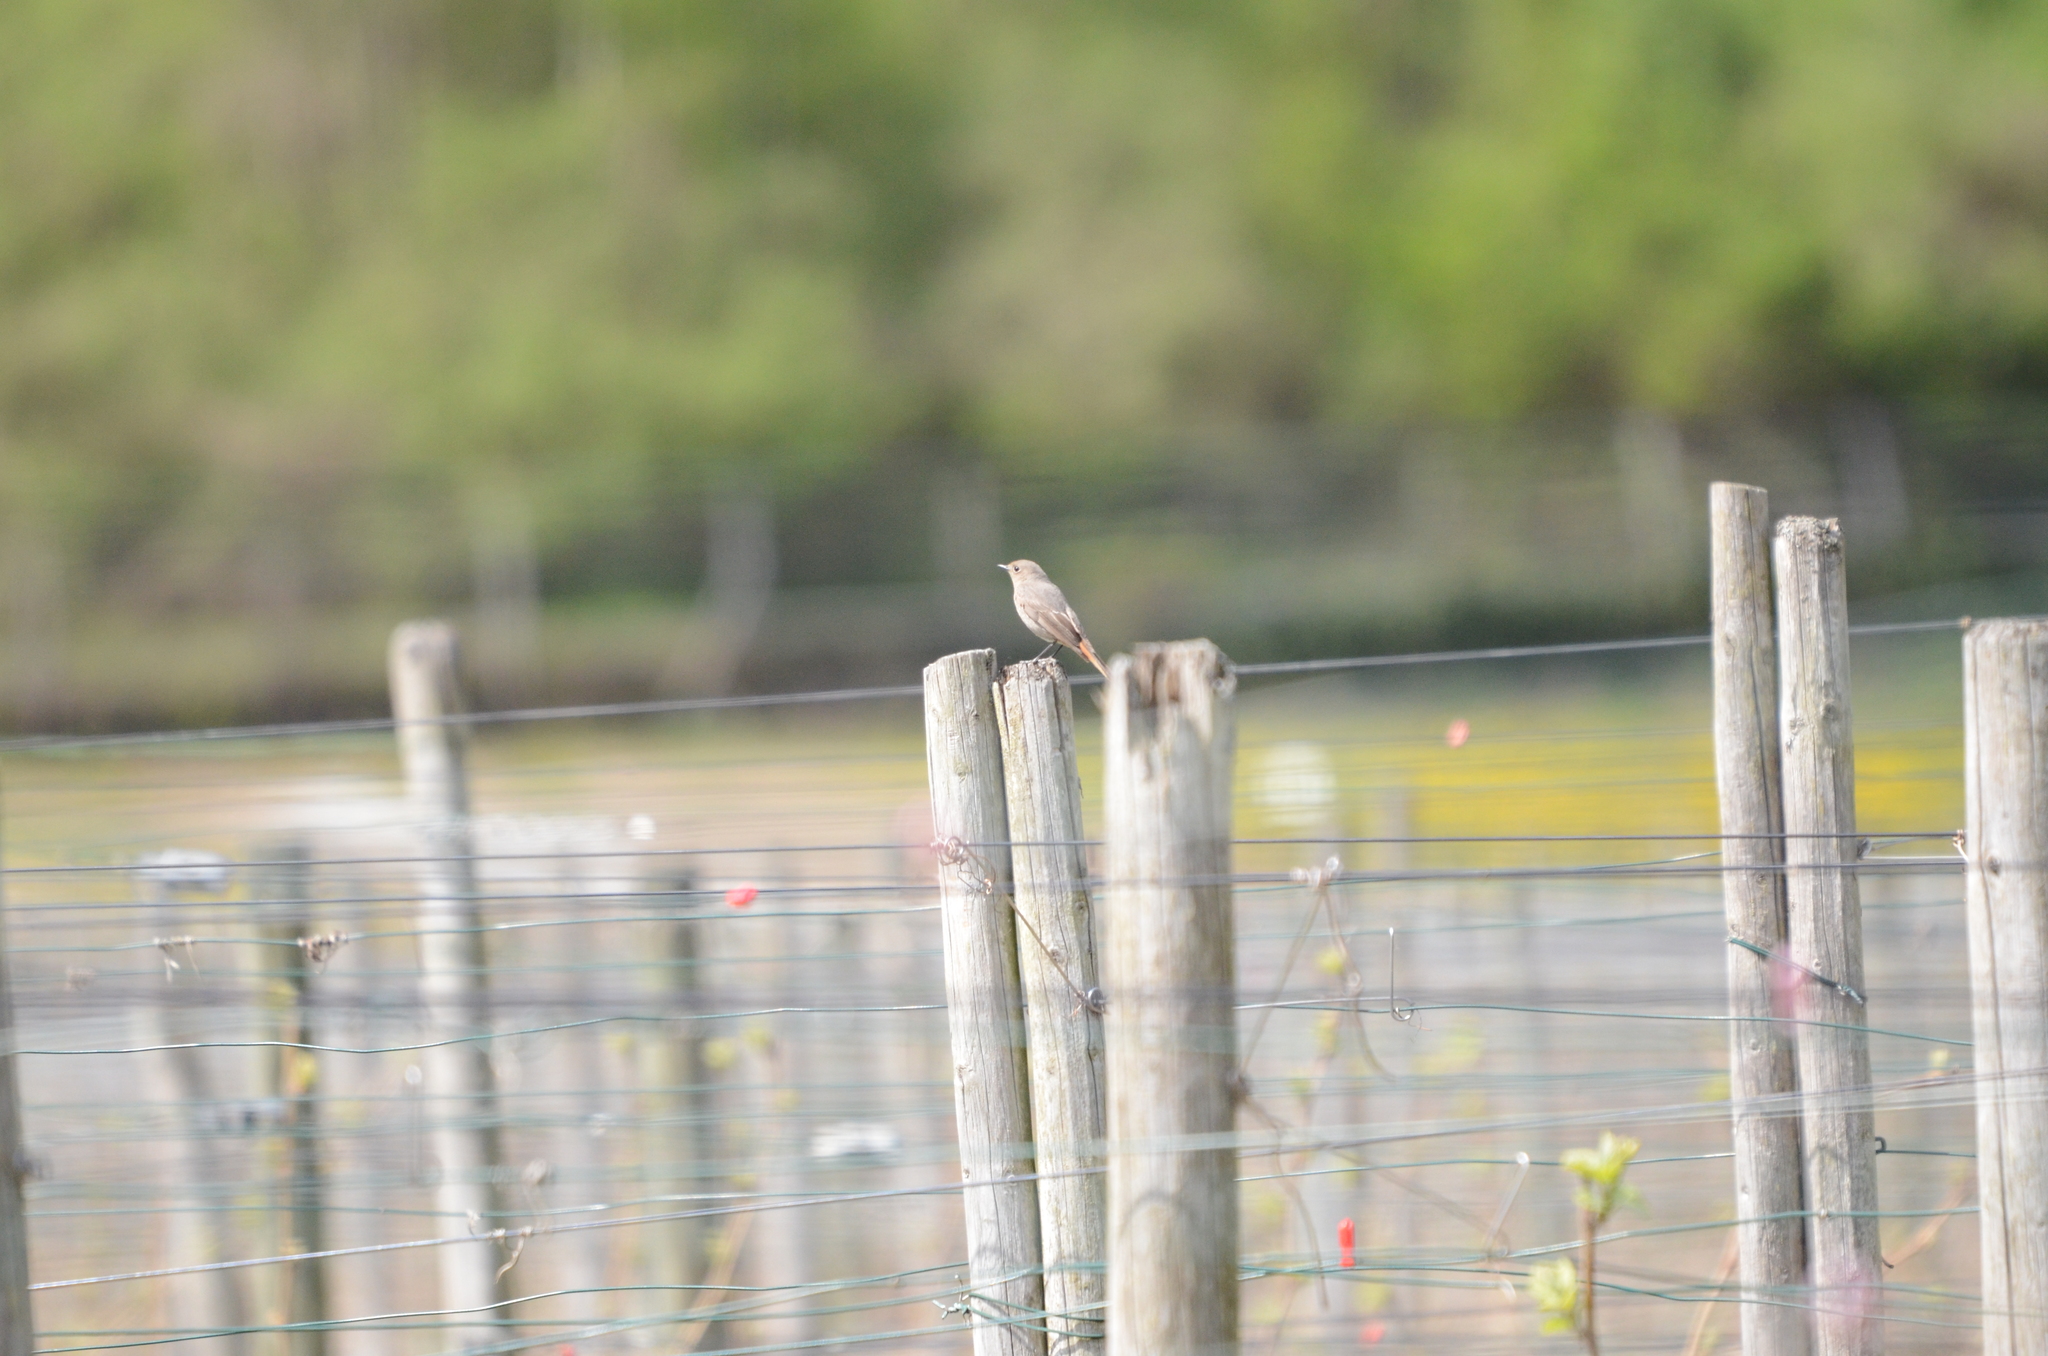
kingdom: Animalia
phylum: Chordata
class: Aves
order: Passeriformes
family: Muscicapidae
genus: Phoenicurus
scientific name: Phoenicurus ochruros
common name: Black redstart
